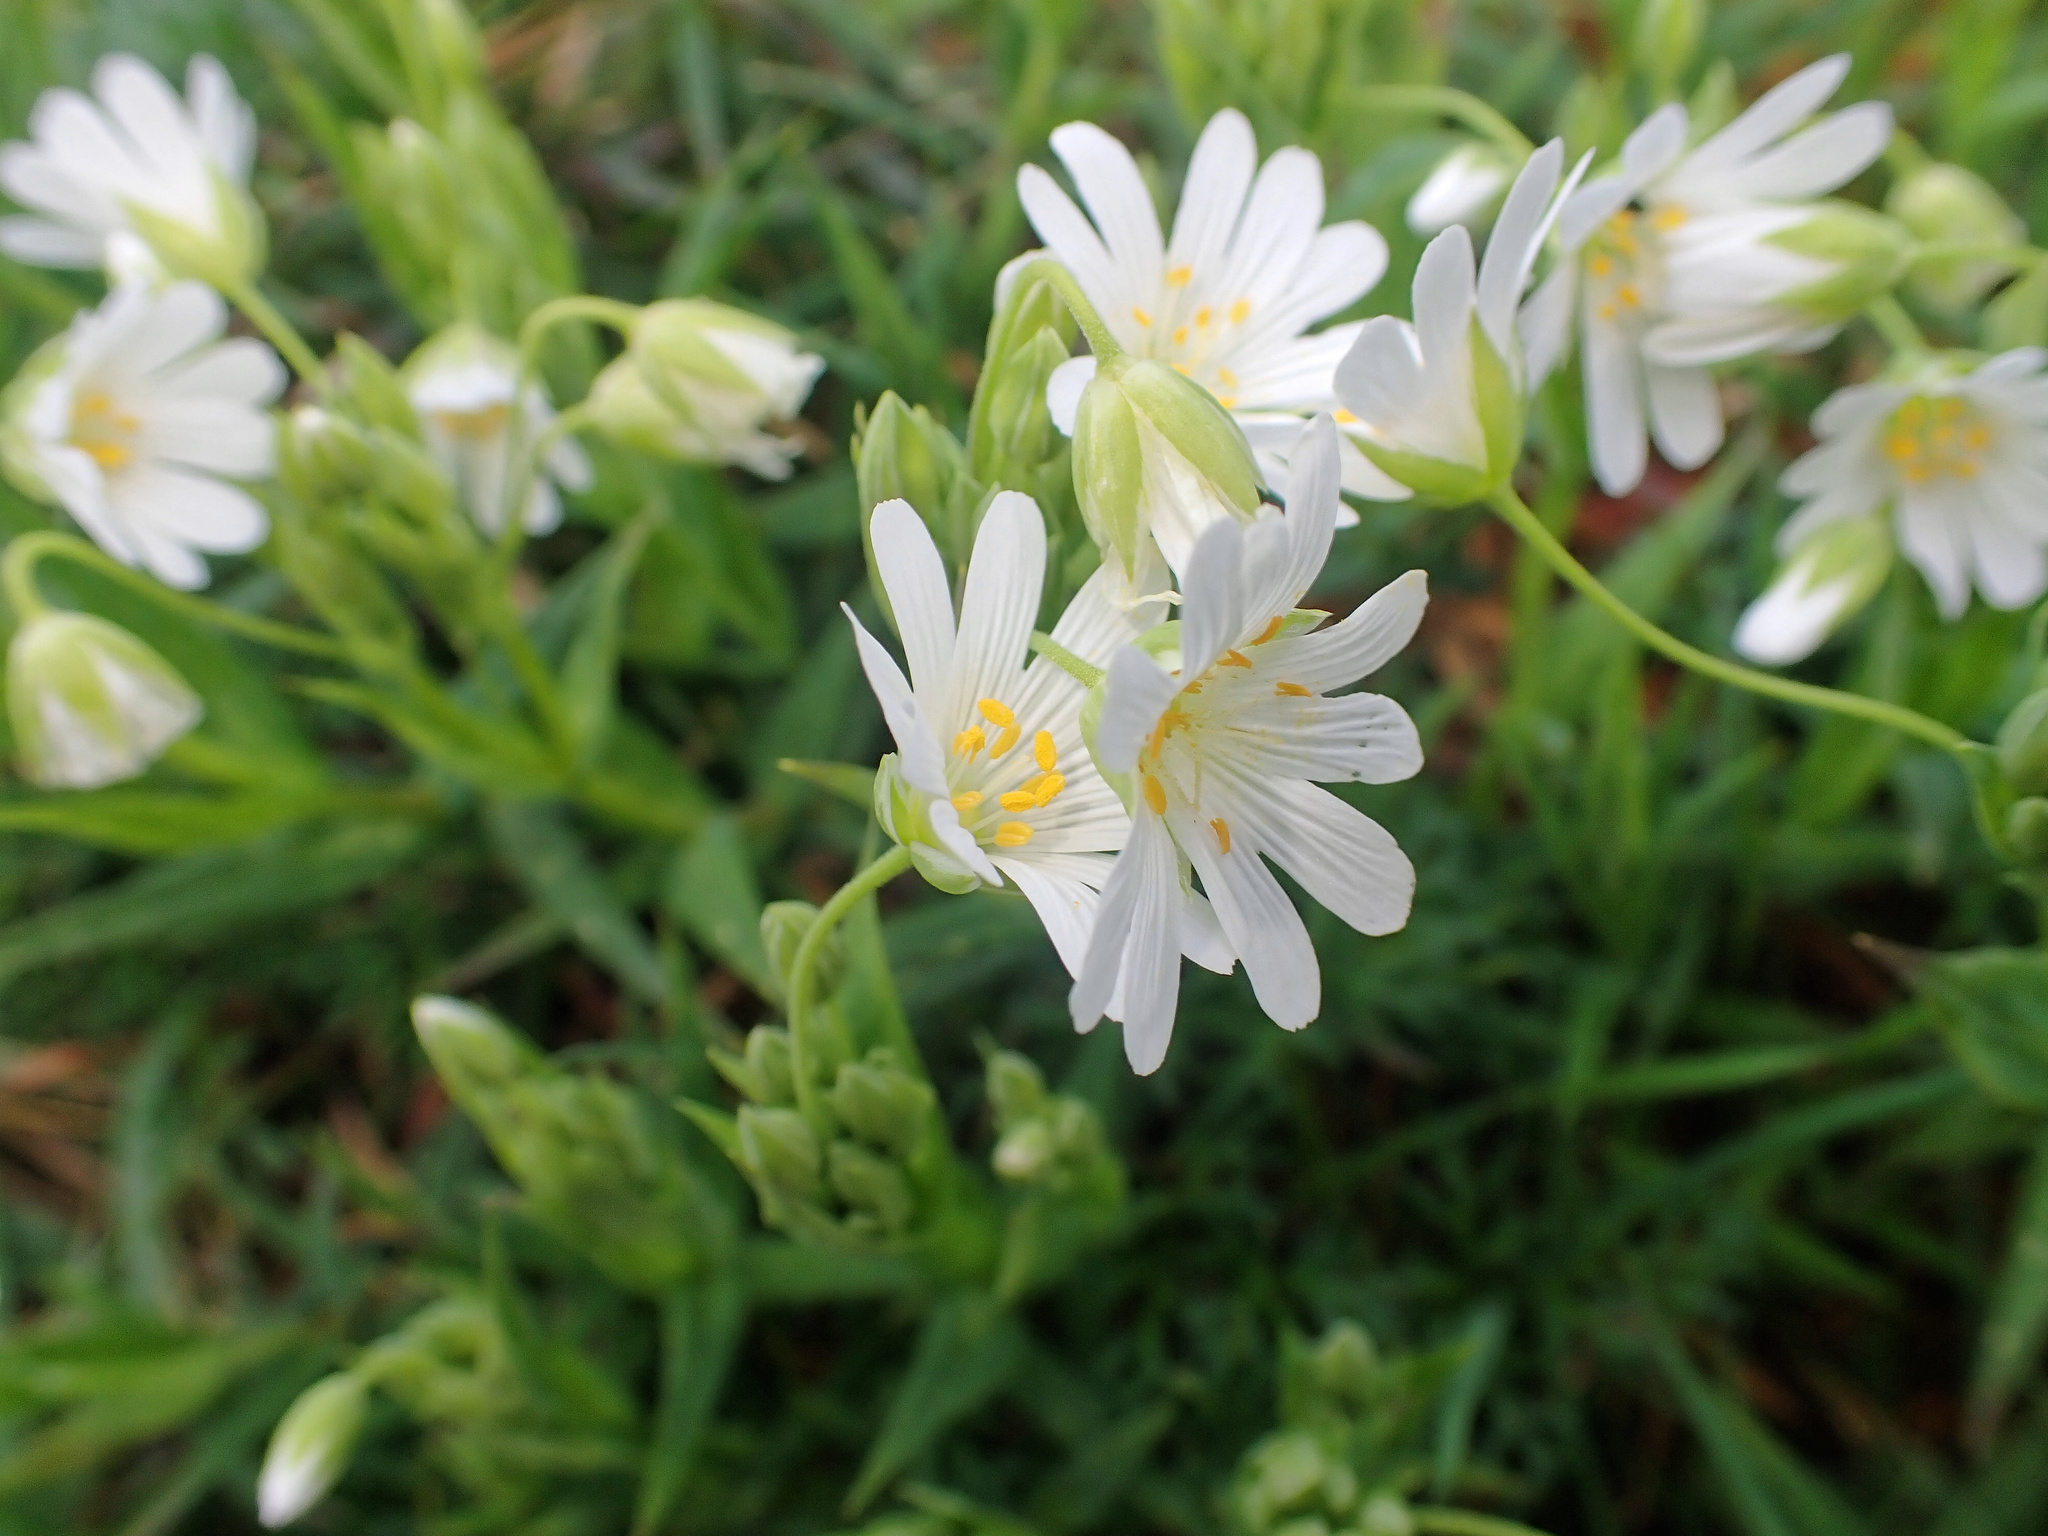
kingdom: Plantae
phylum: Tracheophyta
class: Magnoliopsida
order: Caryophyllales
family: Caryophyllaceae
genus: Rabelera
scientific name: Rabelera holostea
